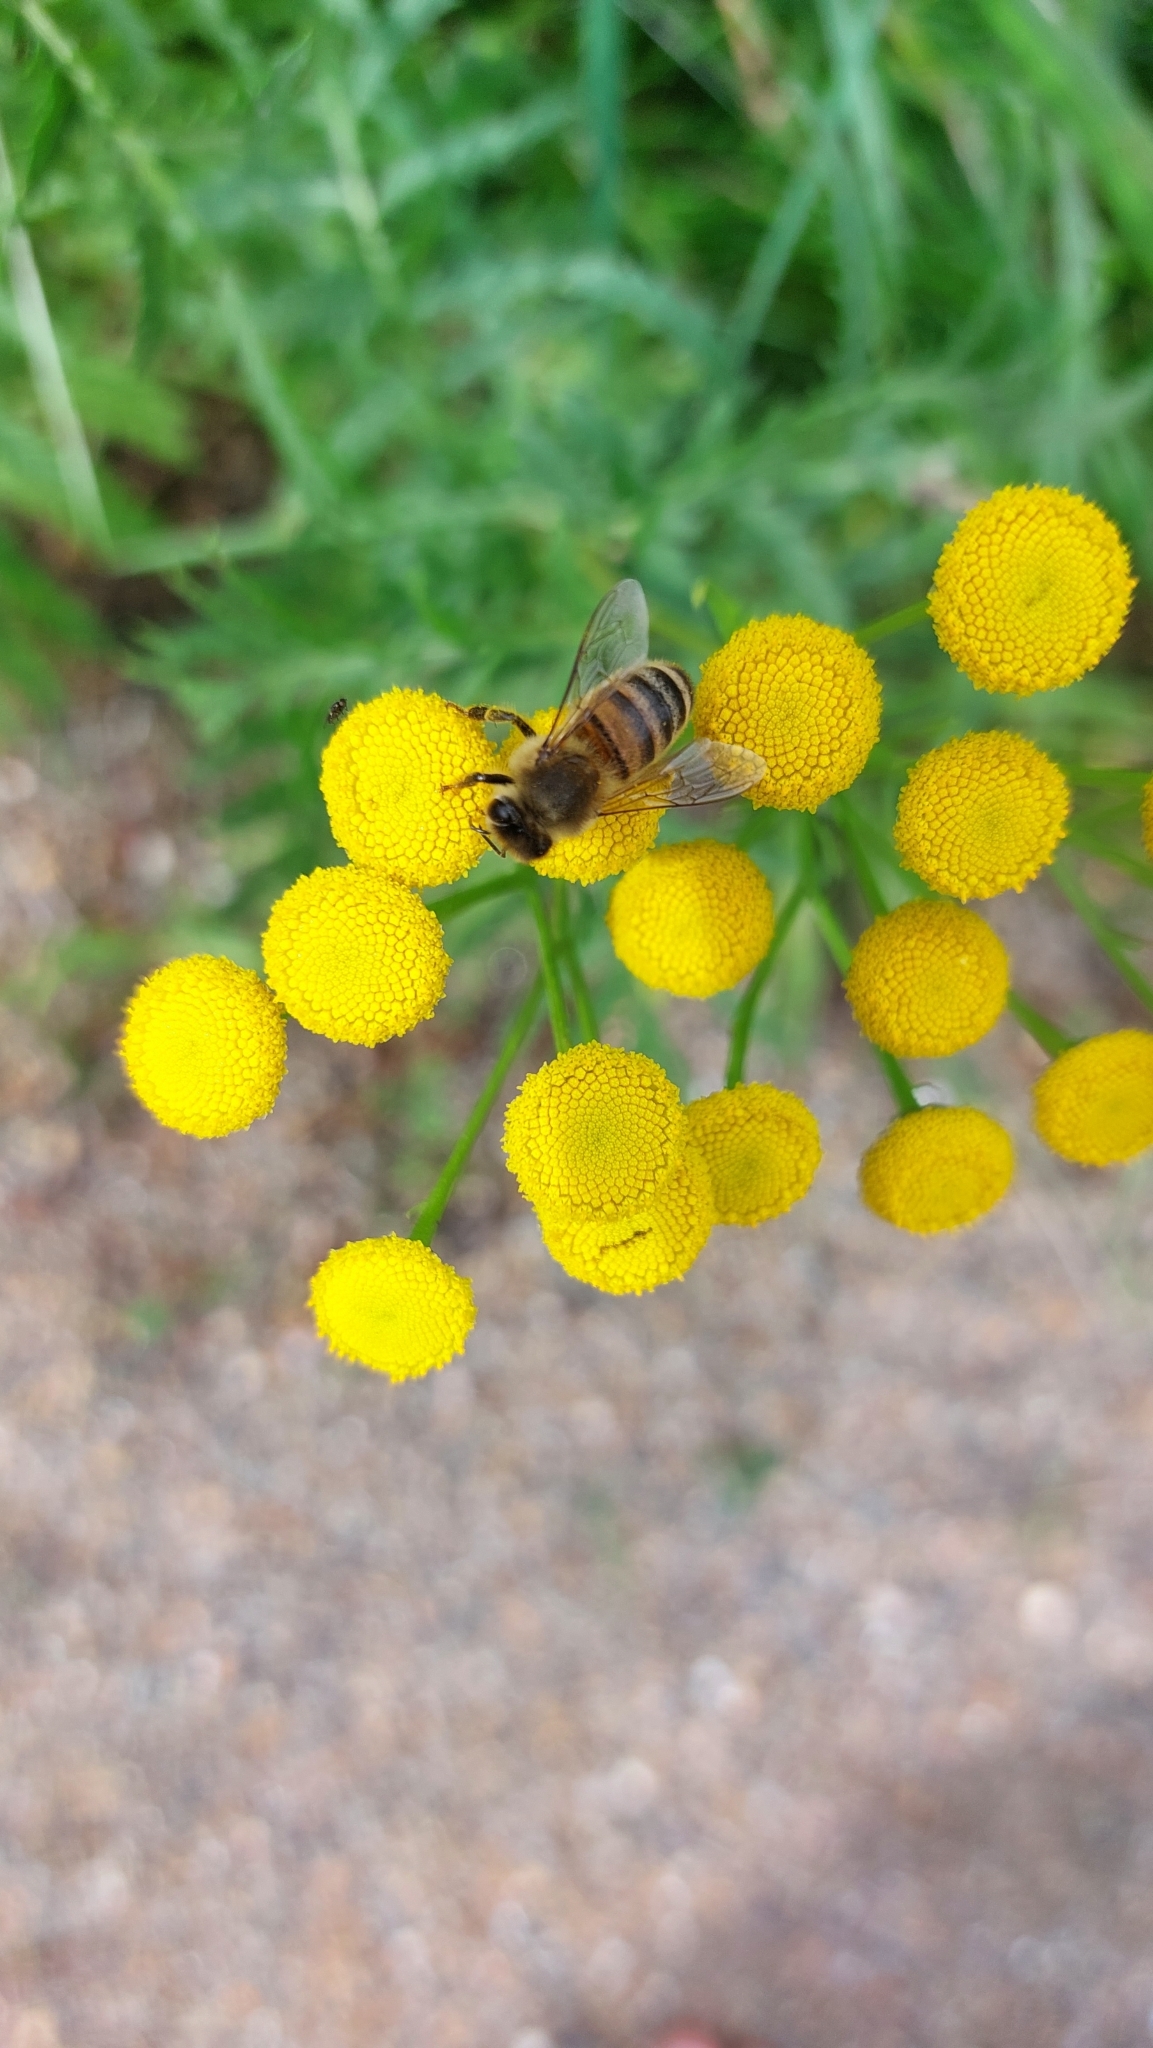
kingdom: Animalia
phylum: Arthropoda
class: Insecta
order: Hymenoptera
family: Apidae
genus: Apis
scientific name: Apis mellifera
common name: Honey bee
